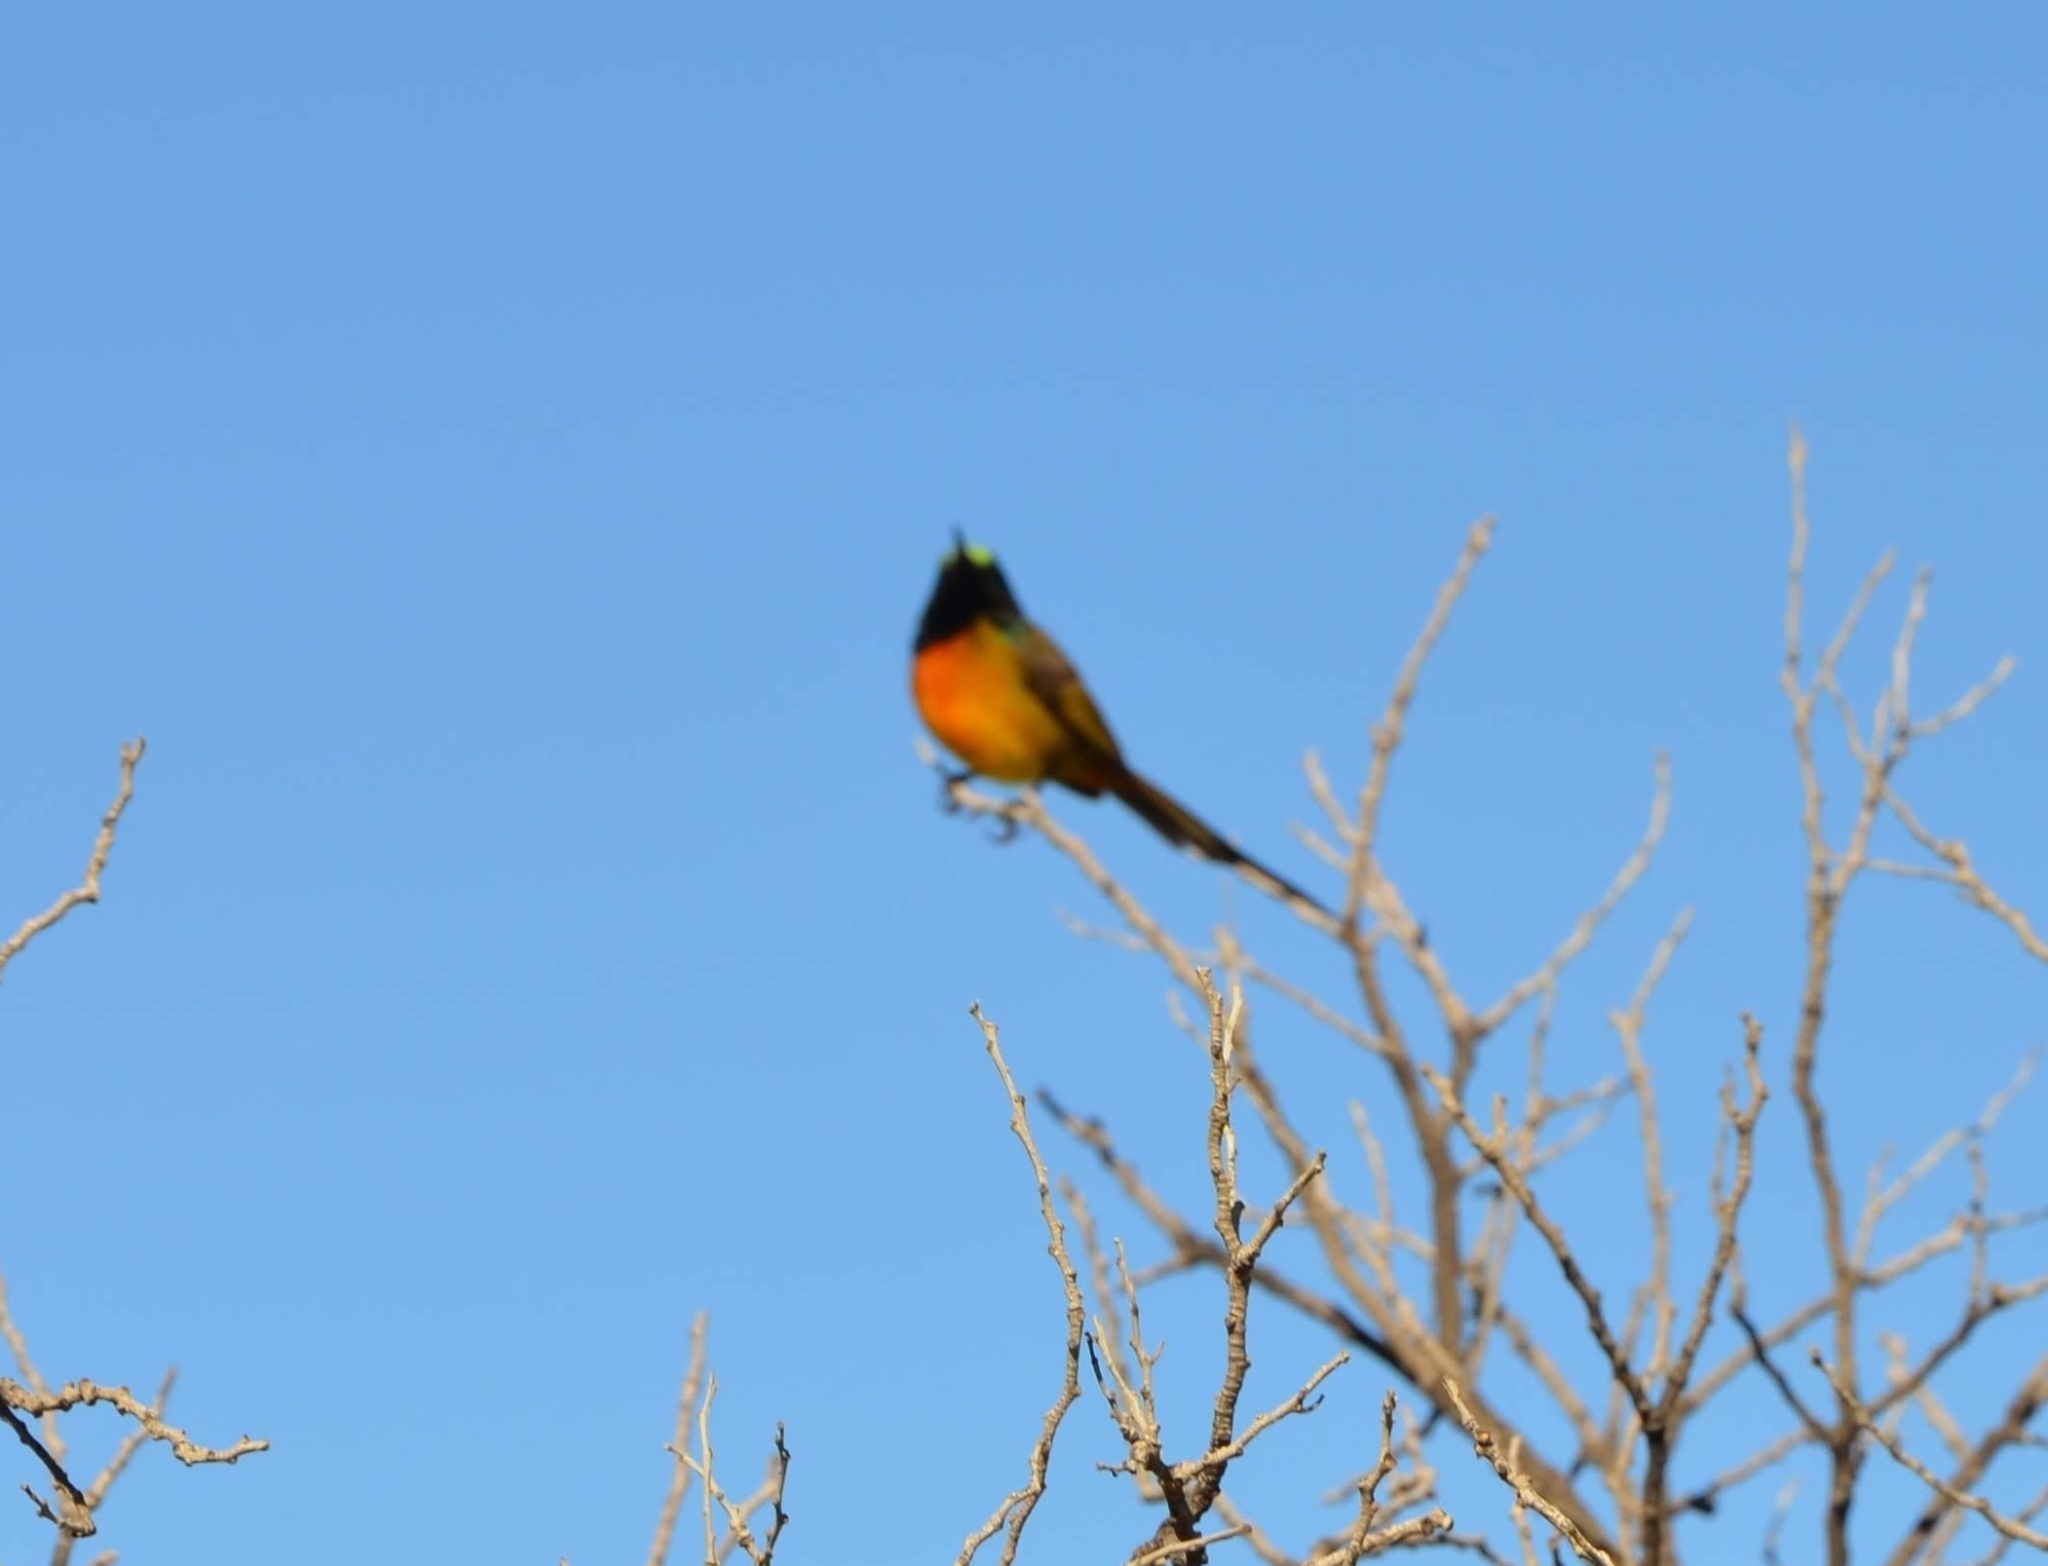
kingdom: Animalia
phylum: Chordata
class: Aves
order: Passeriformes
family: Nectariniidae
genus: Anthobaphes
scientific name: Anthobaphes violacea
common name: Orange-breasted sunbird
